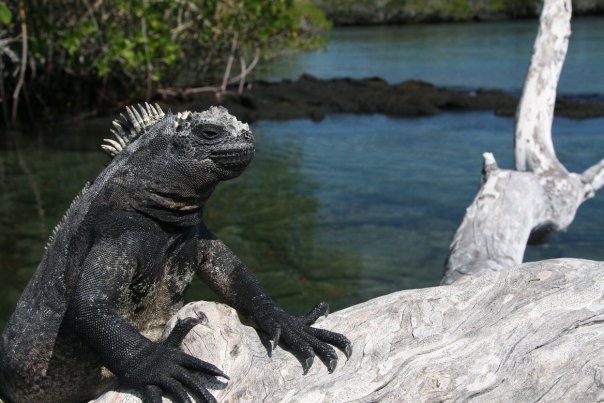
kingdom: Animalia
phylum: Chordata
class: Squamata
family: Iguanidae
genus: Amblyrhynchus
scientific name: Amblyrhynchus cristatus
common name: Marine iguana
